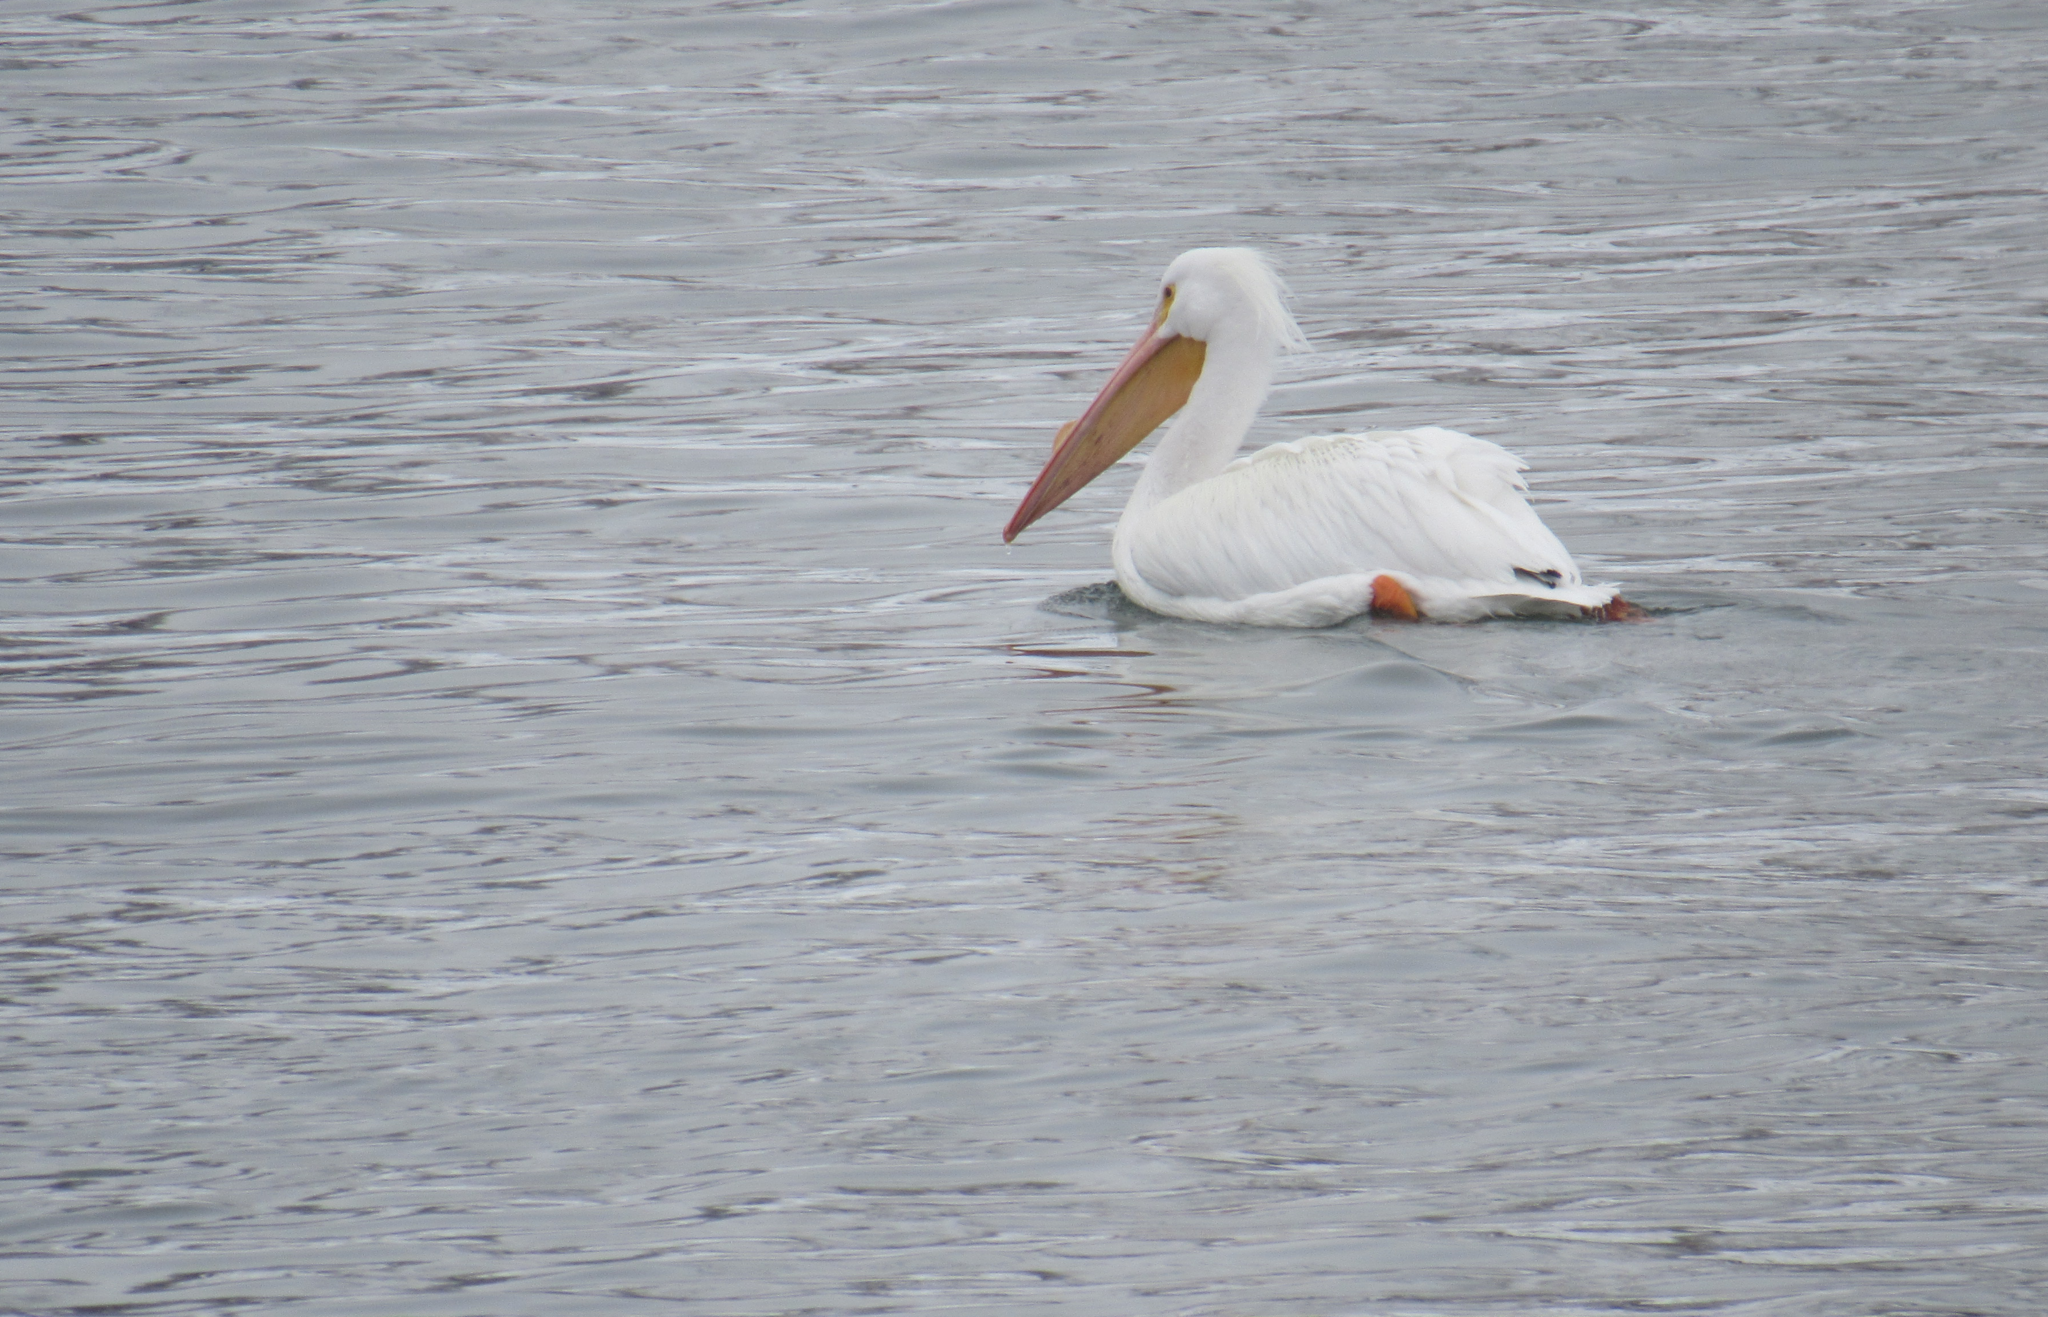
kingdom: Animalia
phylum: Chordata
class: Aves
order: Pelecaniformes
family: Pelecanidae
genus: Pelecanus
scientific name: Pelecanus erythrorhynchos
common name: American white pelican
